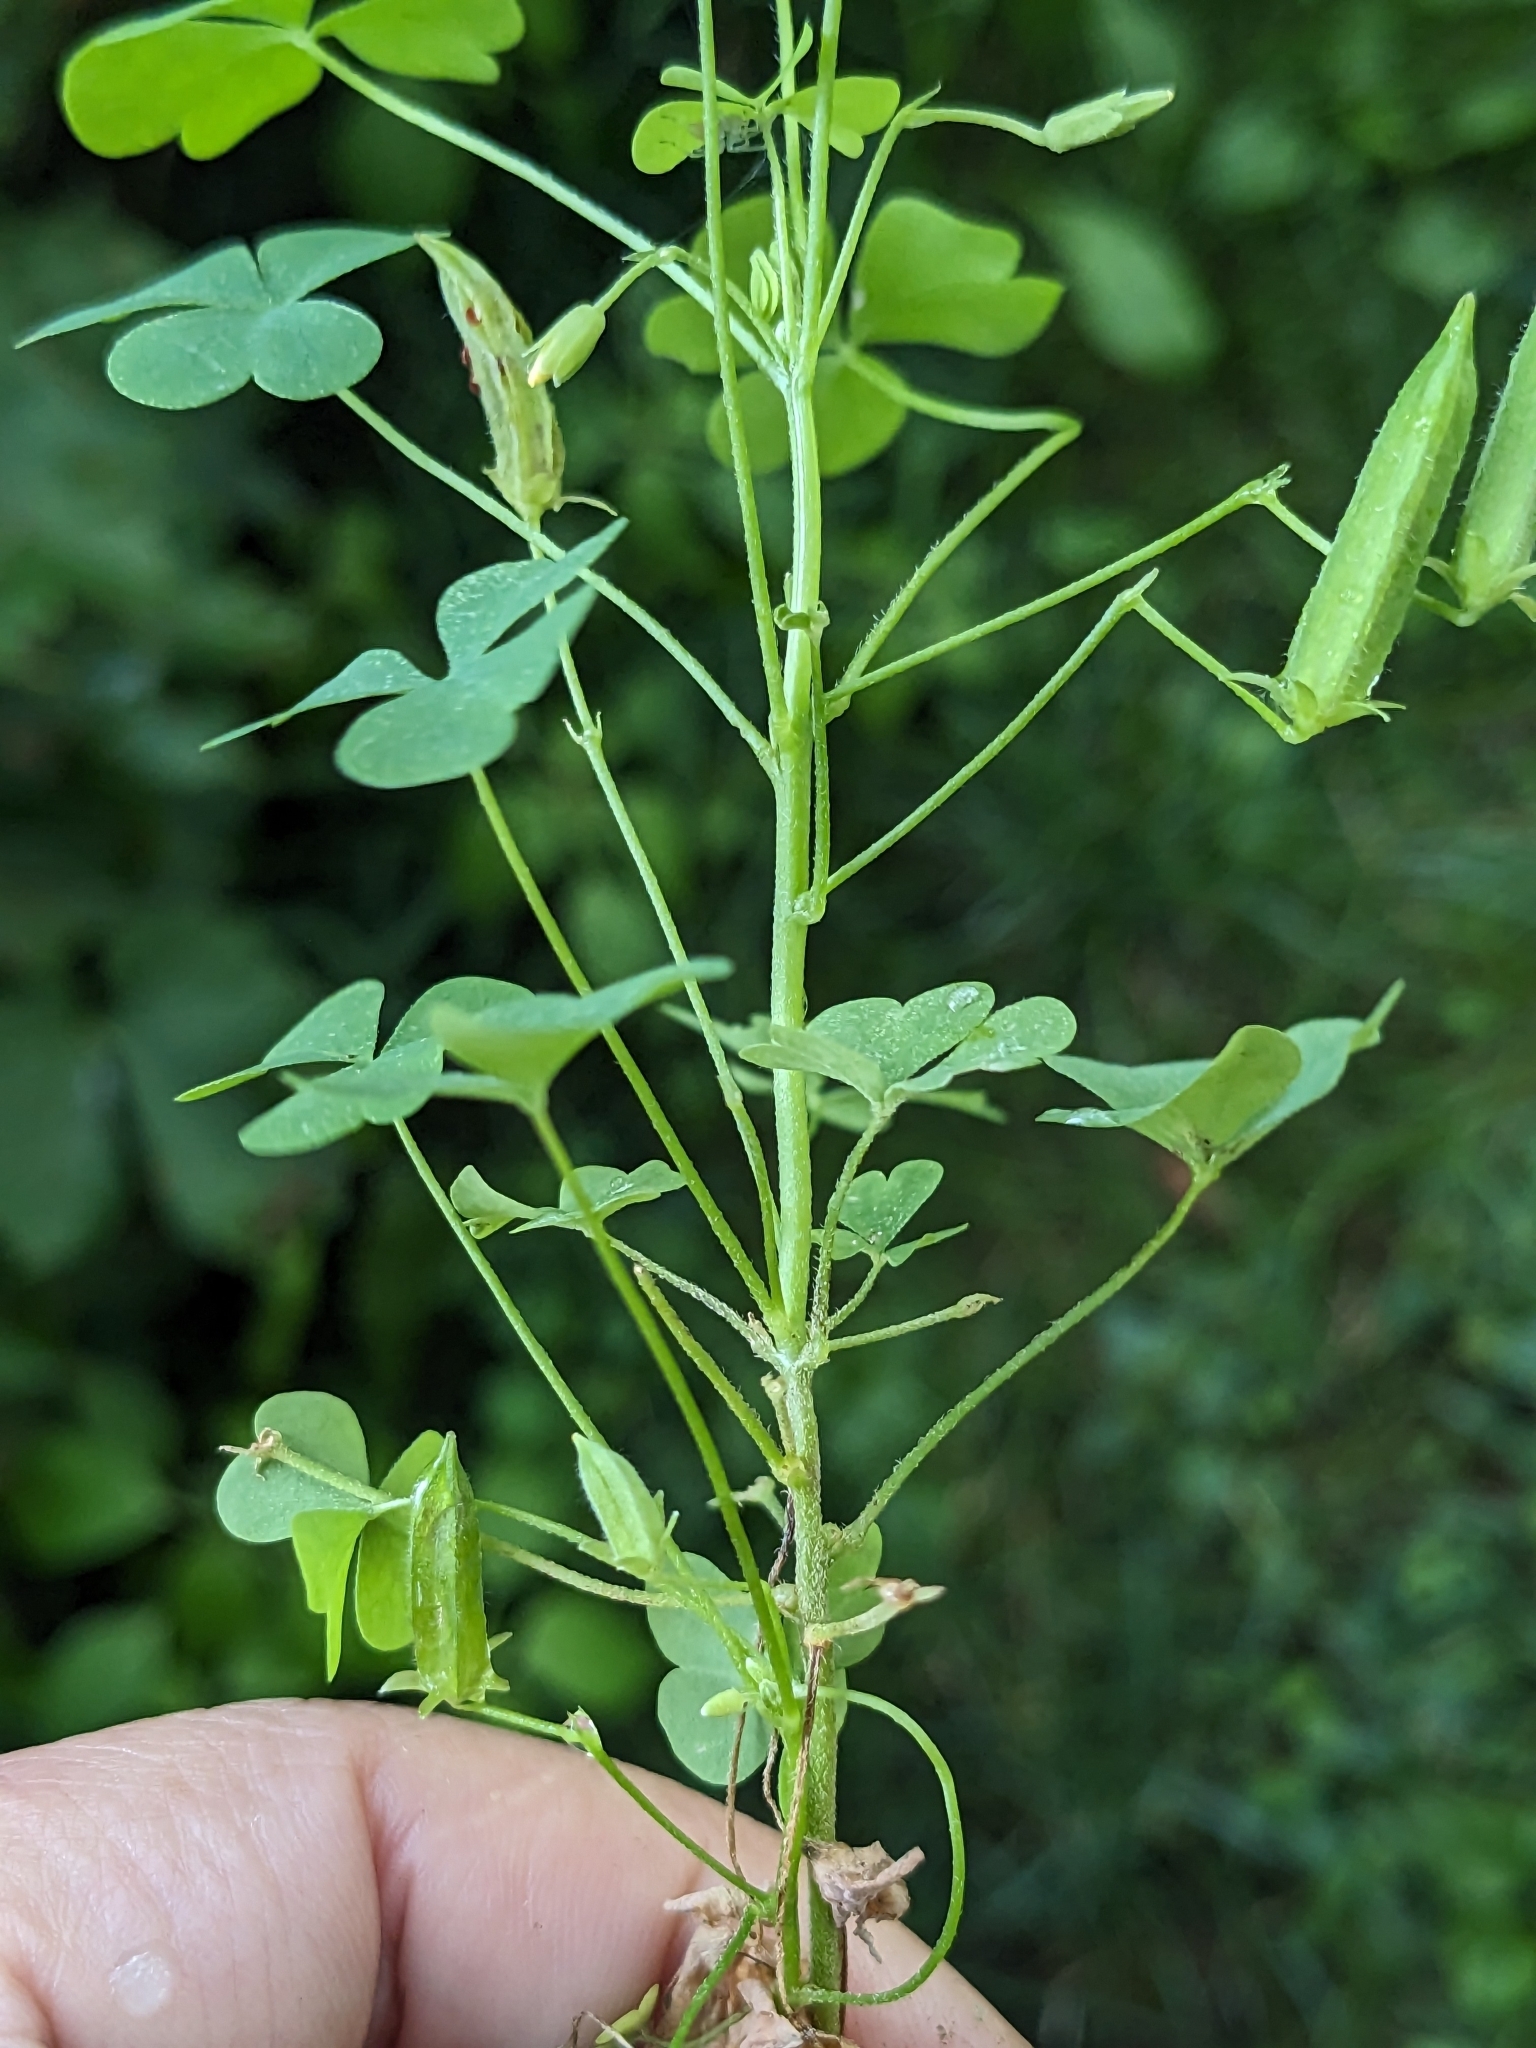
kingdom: Plantae
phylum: Tracheophyta
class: Magnoliopsida
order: Oxalidales
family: Oxalidaceae
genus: Oxalis
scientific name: Oxalis dillenii
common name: Sussex yellow-sorrel
